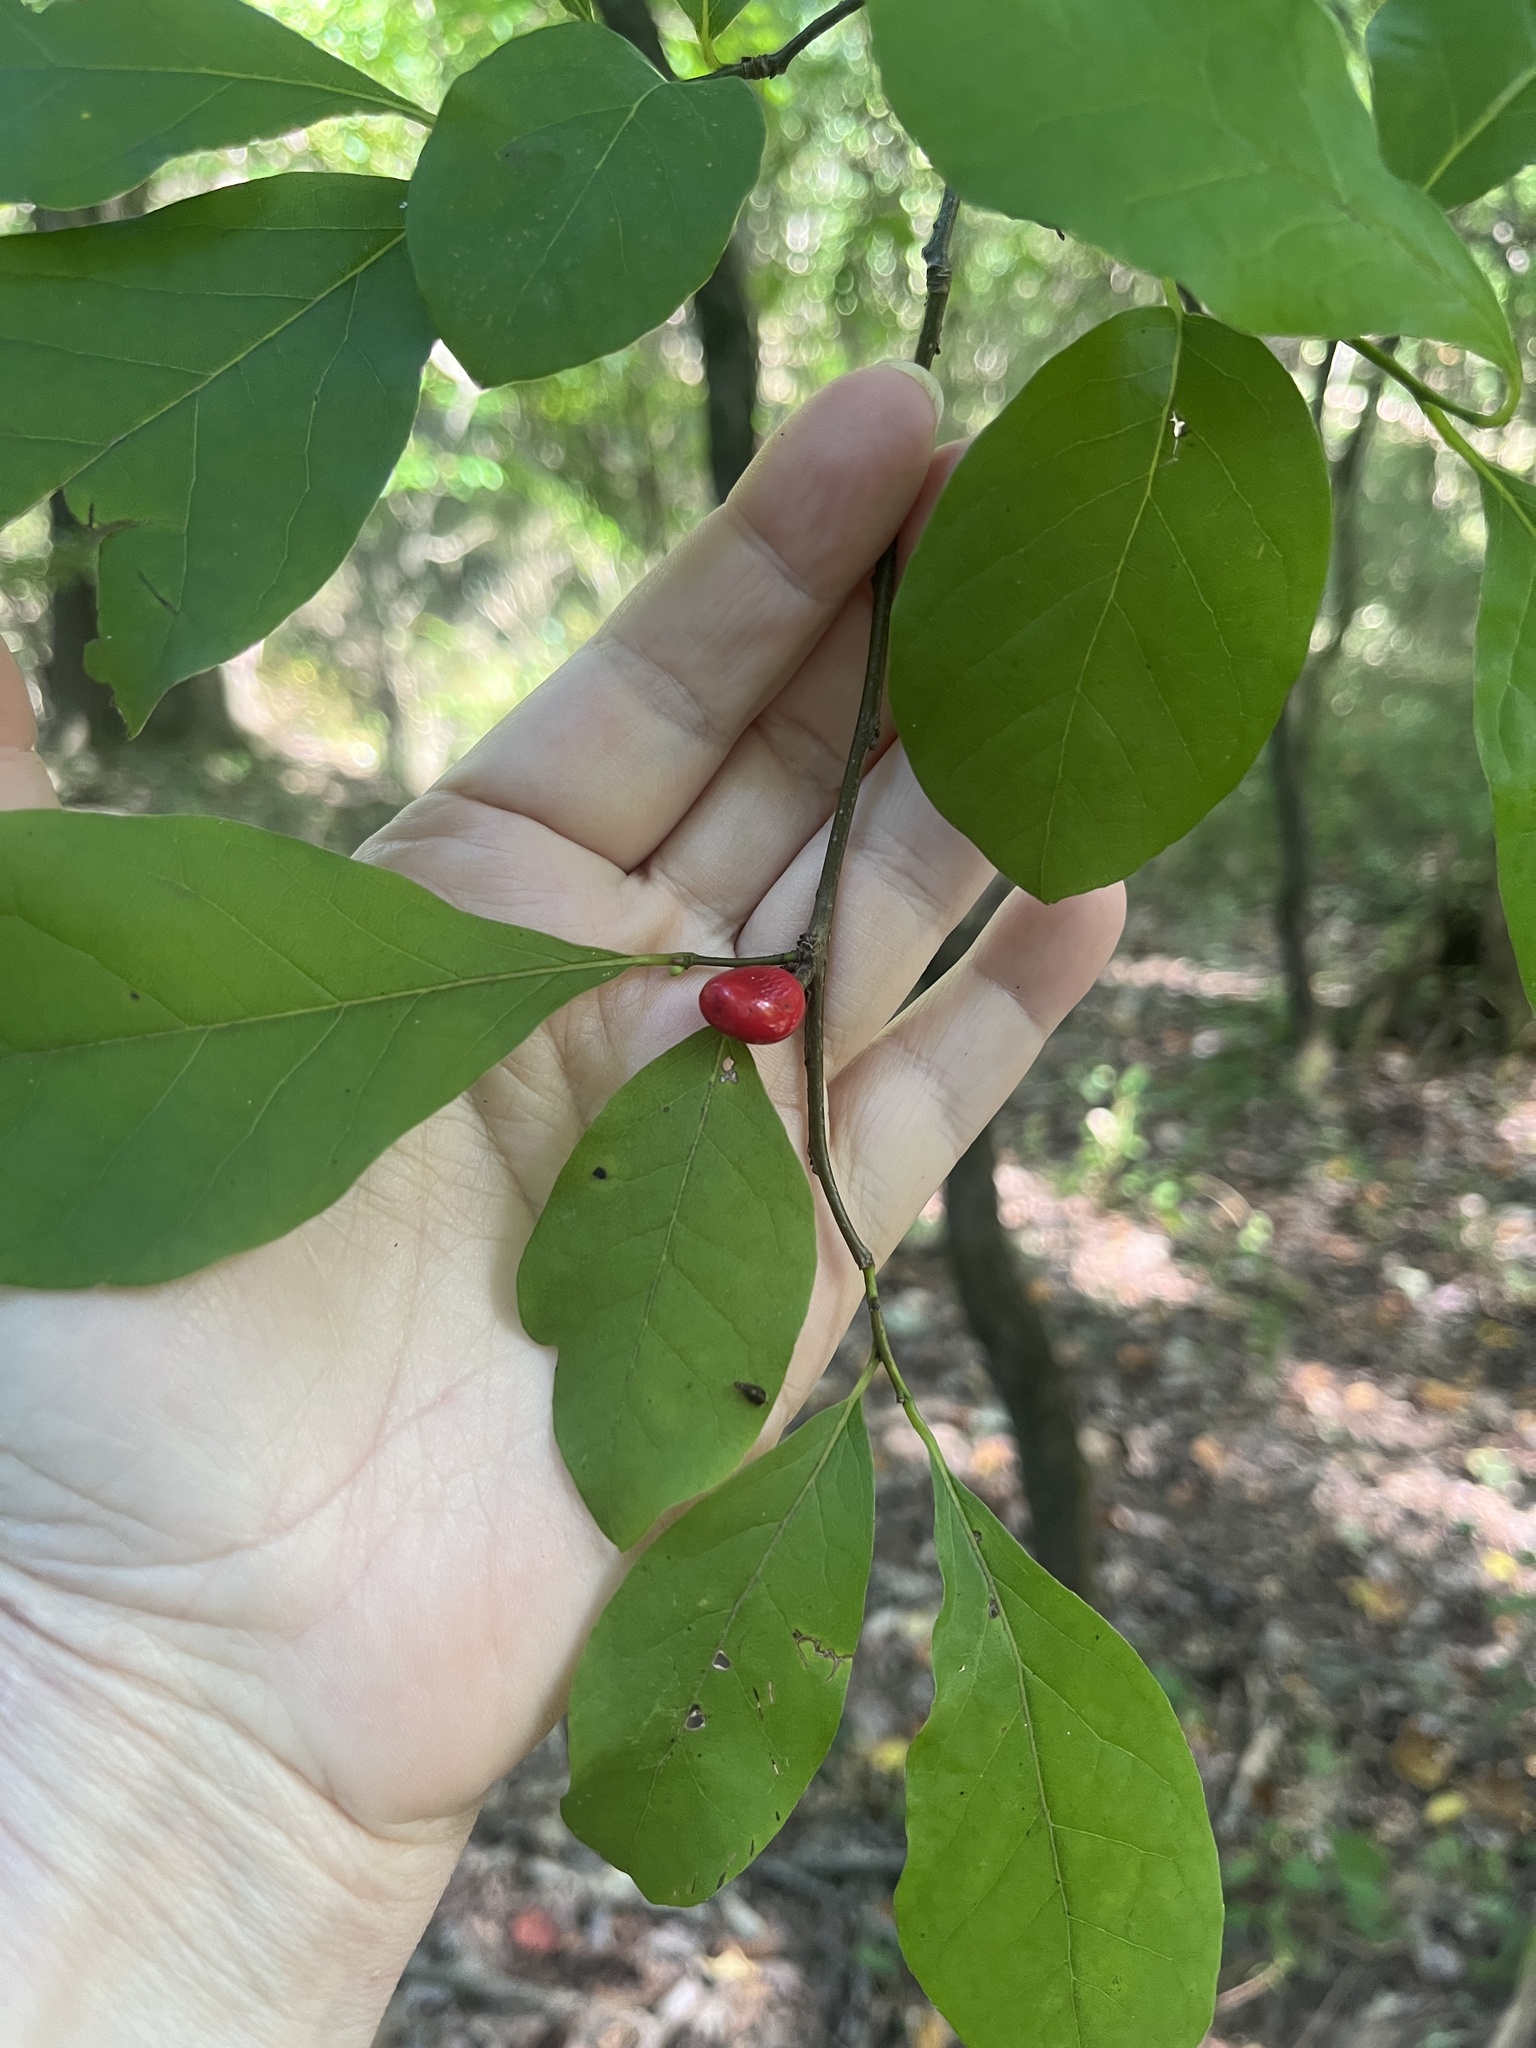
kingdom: Plantae
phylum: Tracheophyta
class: Magnoliopsida
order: Laurales
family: Lauraceae
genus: Lindera
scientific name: Lindera benzoin
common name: Spicebush
